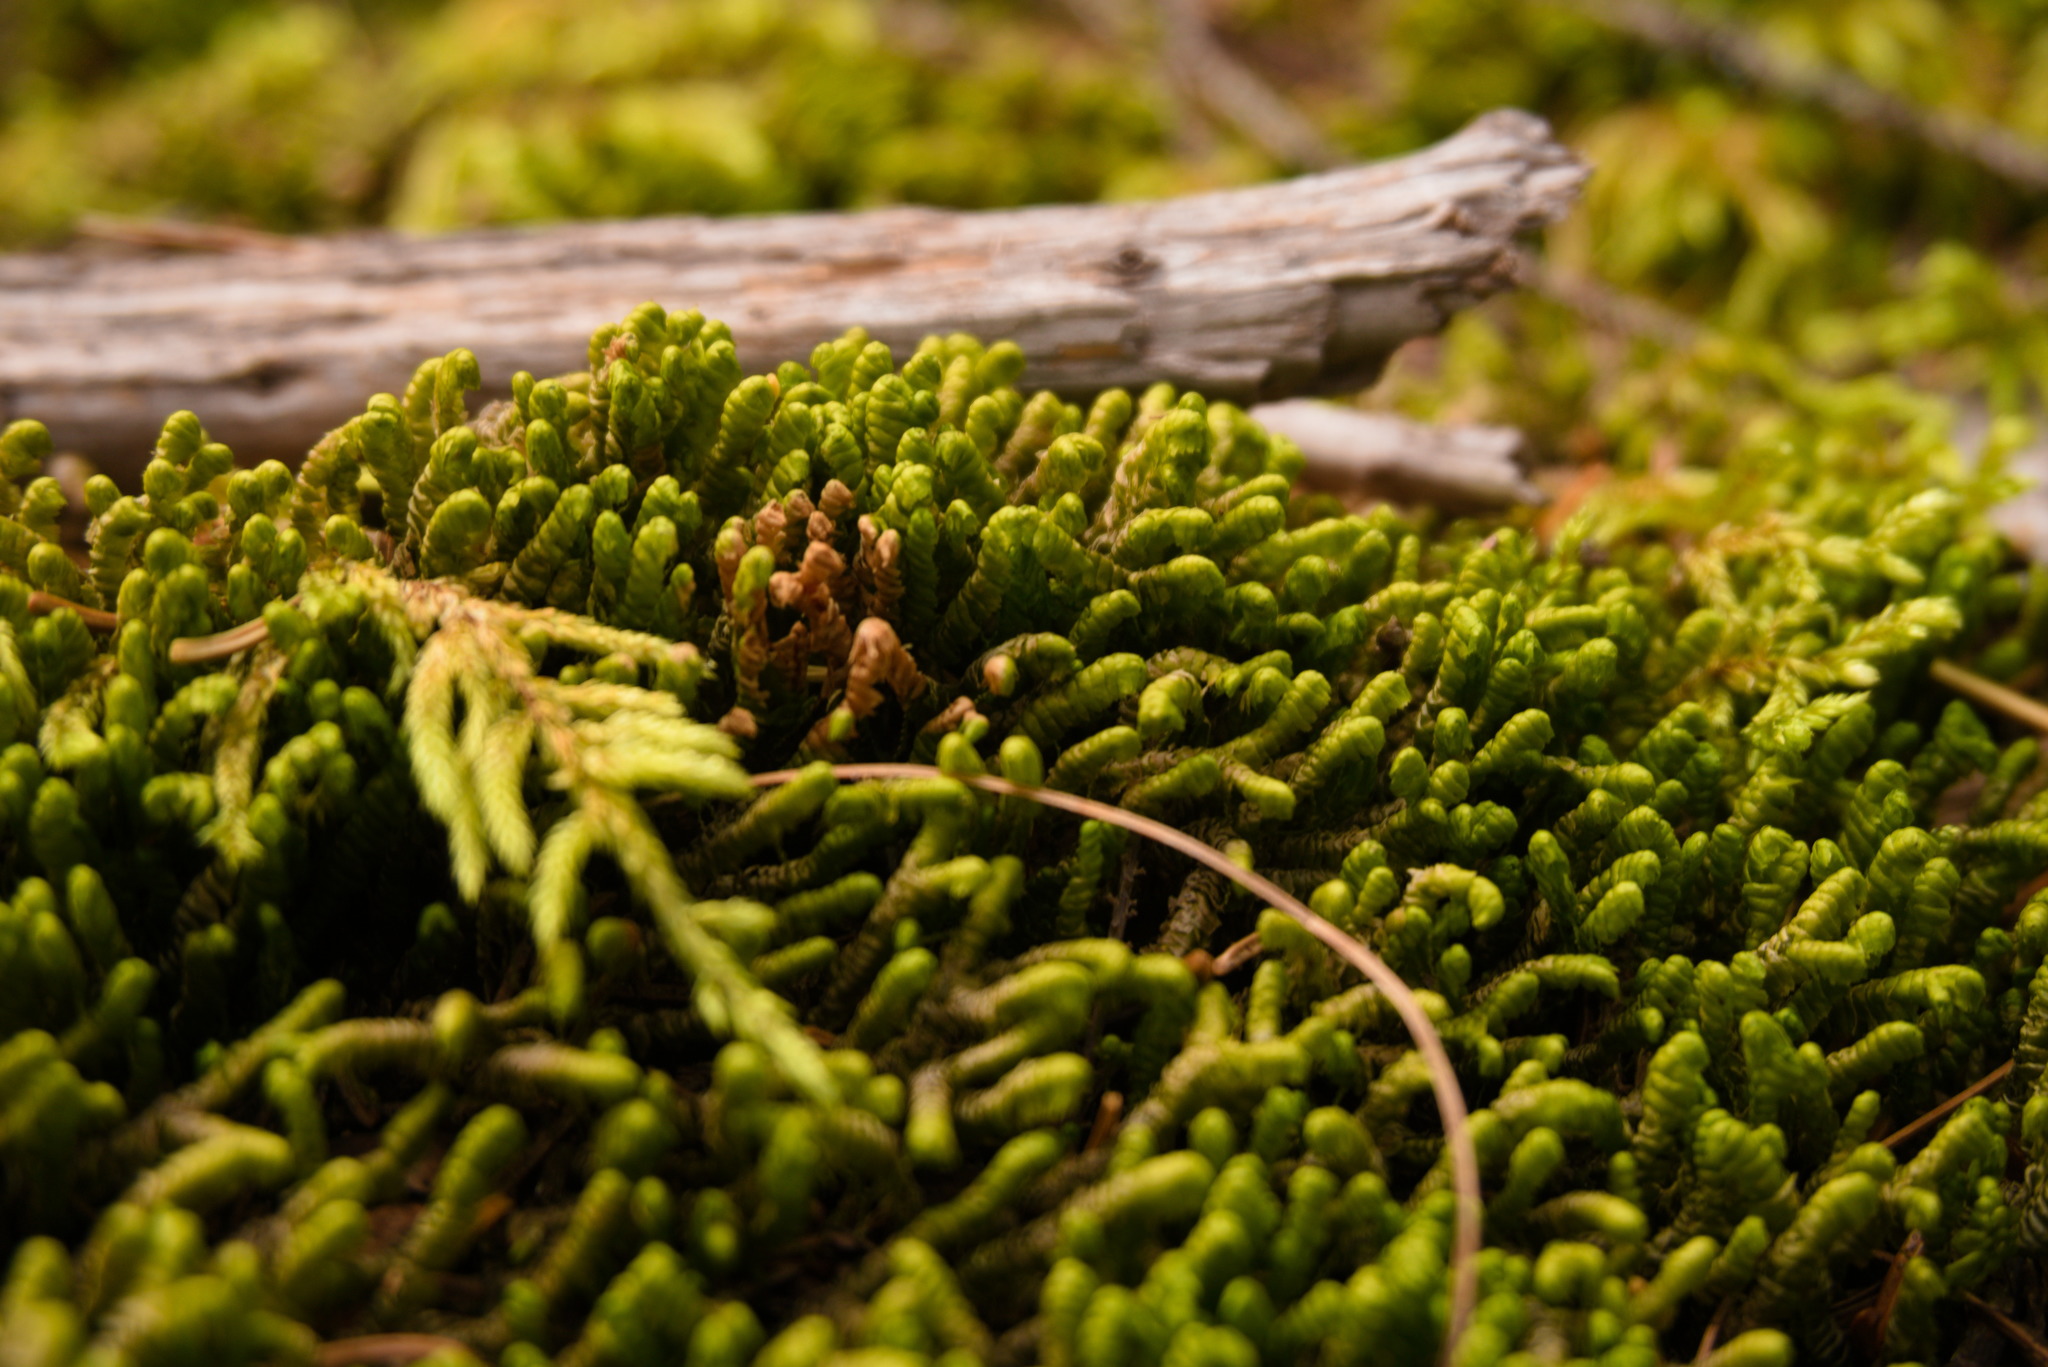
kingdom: Plantae
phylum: Marchantiophyta
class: Jungermanniopsida
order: Jungermanniales
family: Lepidoziaceae
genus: Bazzania
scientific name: Bazzania trilobata
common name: Three-lobed whipwort
